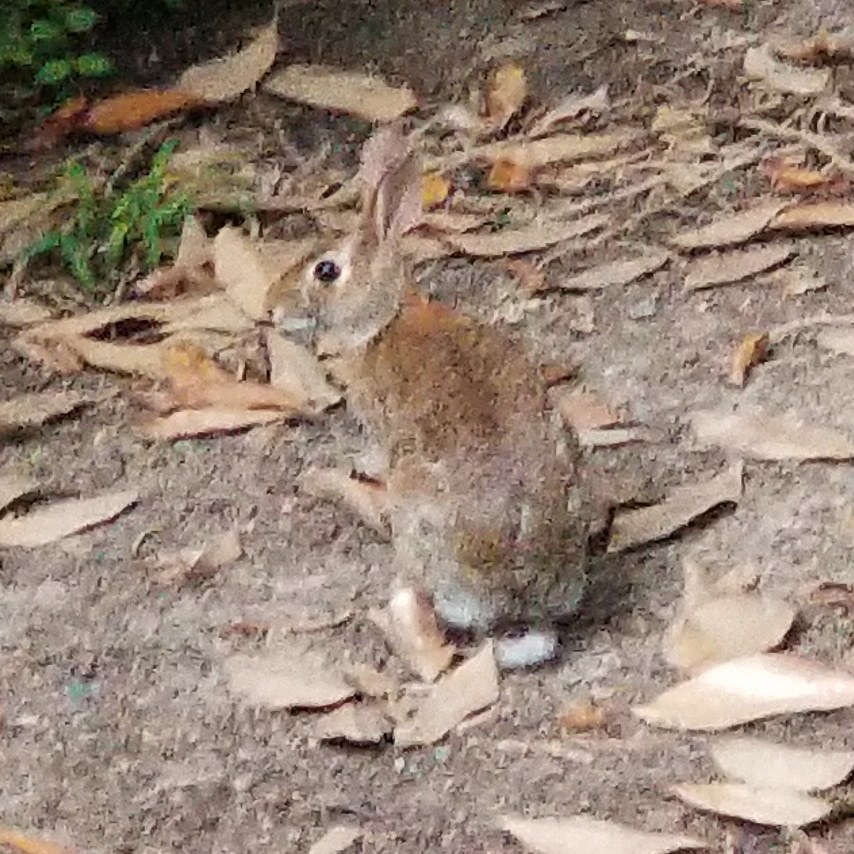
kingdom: Animalia
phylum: Chordata
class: Mammalia
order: Lagomorpha
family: Leporidae
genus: Sylvilagus
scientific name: Sylvilagus floridanus
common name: Eastern cottontail
